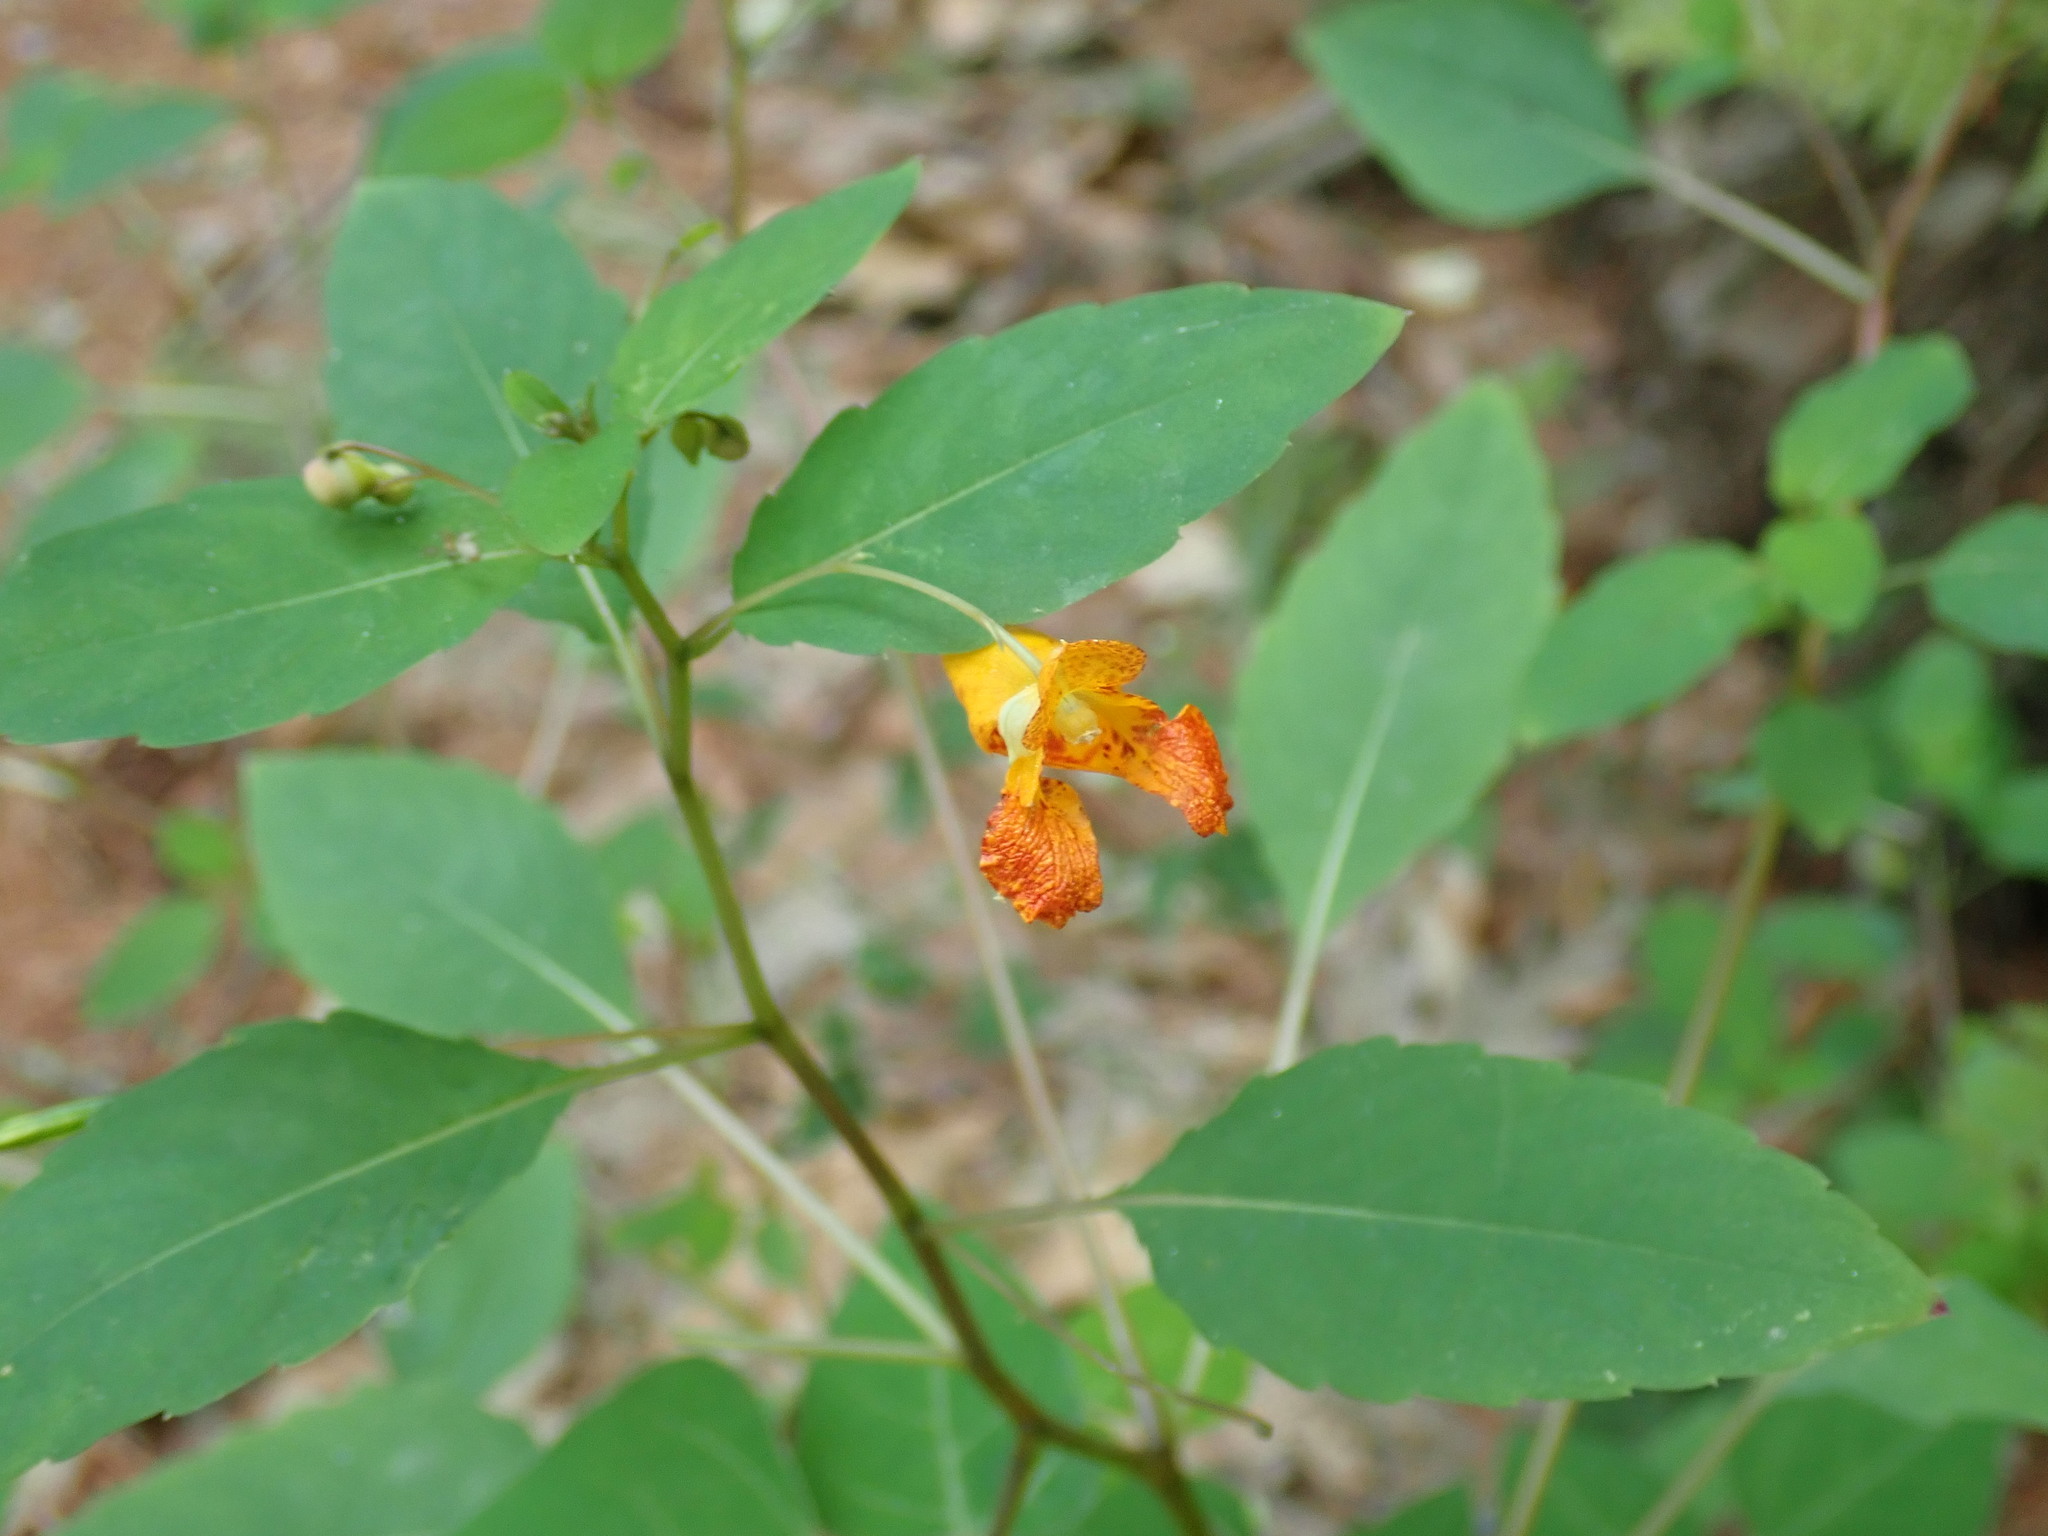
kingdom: Plantae
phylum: Tracheophyta
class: Magnoliopsida
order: Ericales
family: Balsaminaceae
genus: Impatiens
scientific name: Impatiens capensis
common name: Orange balsam
